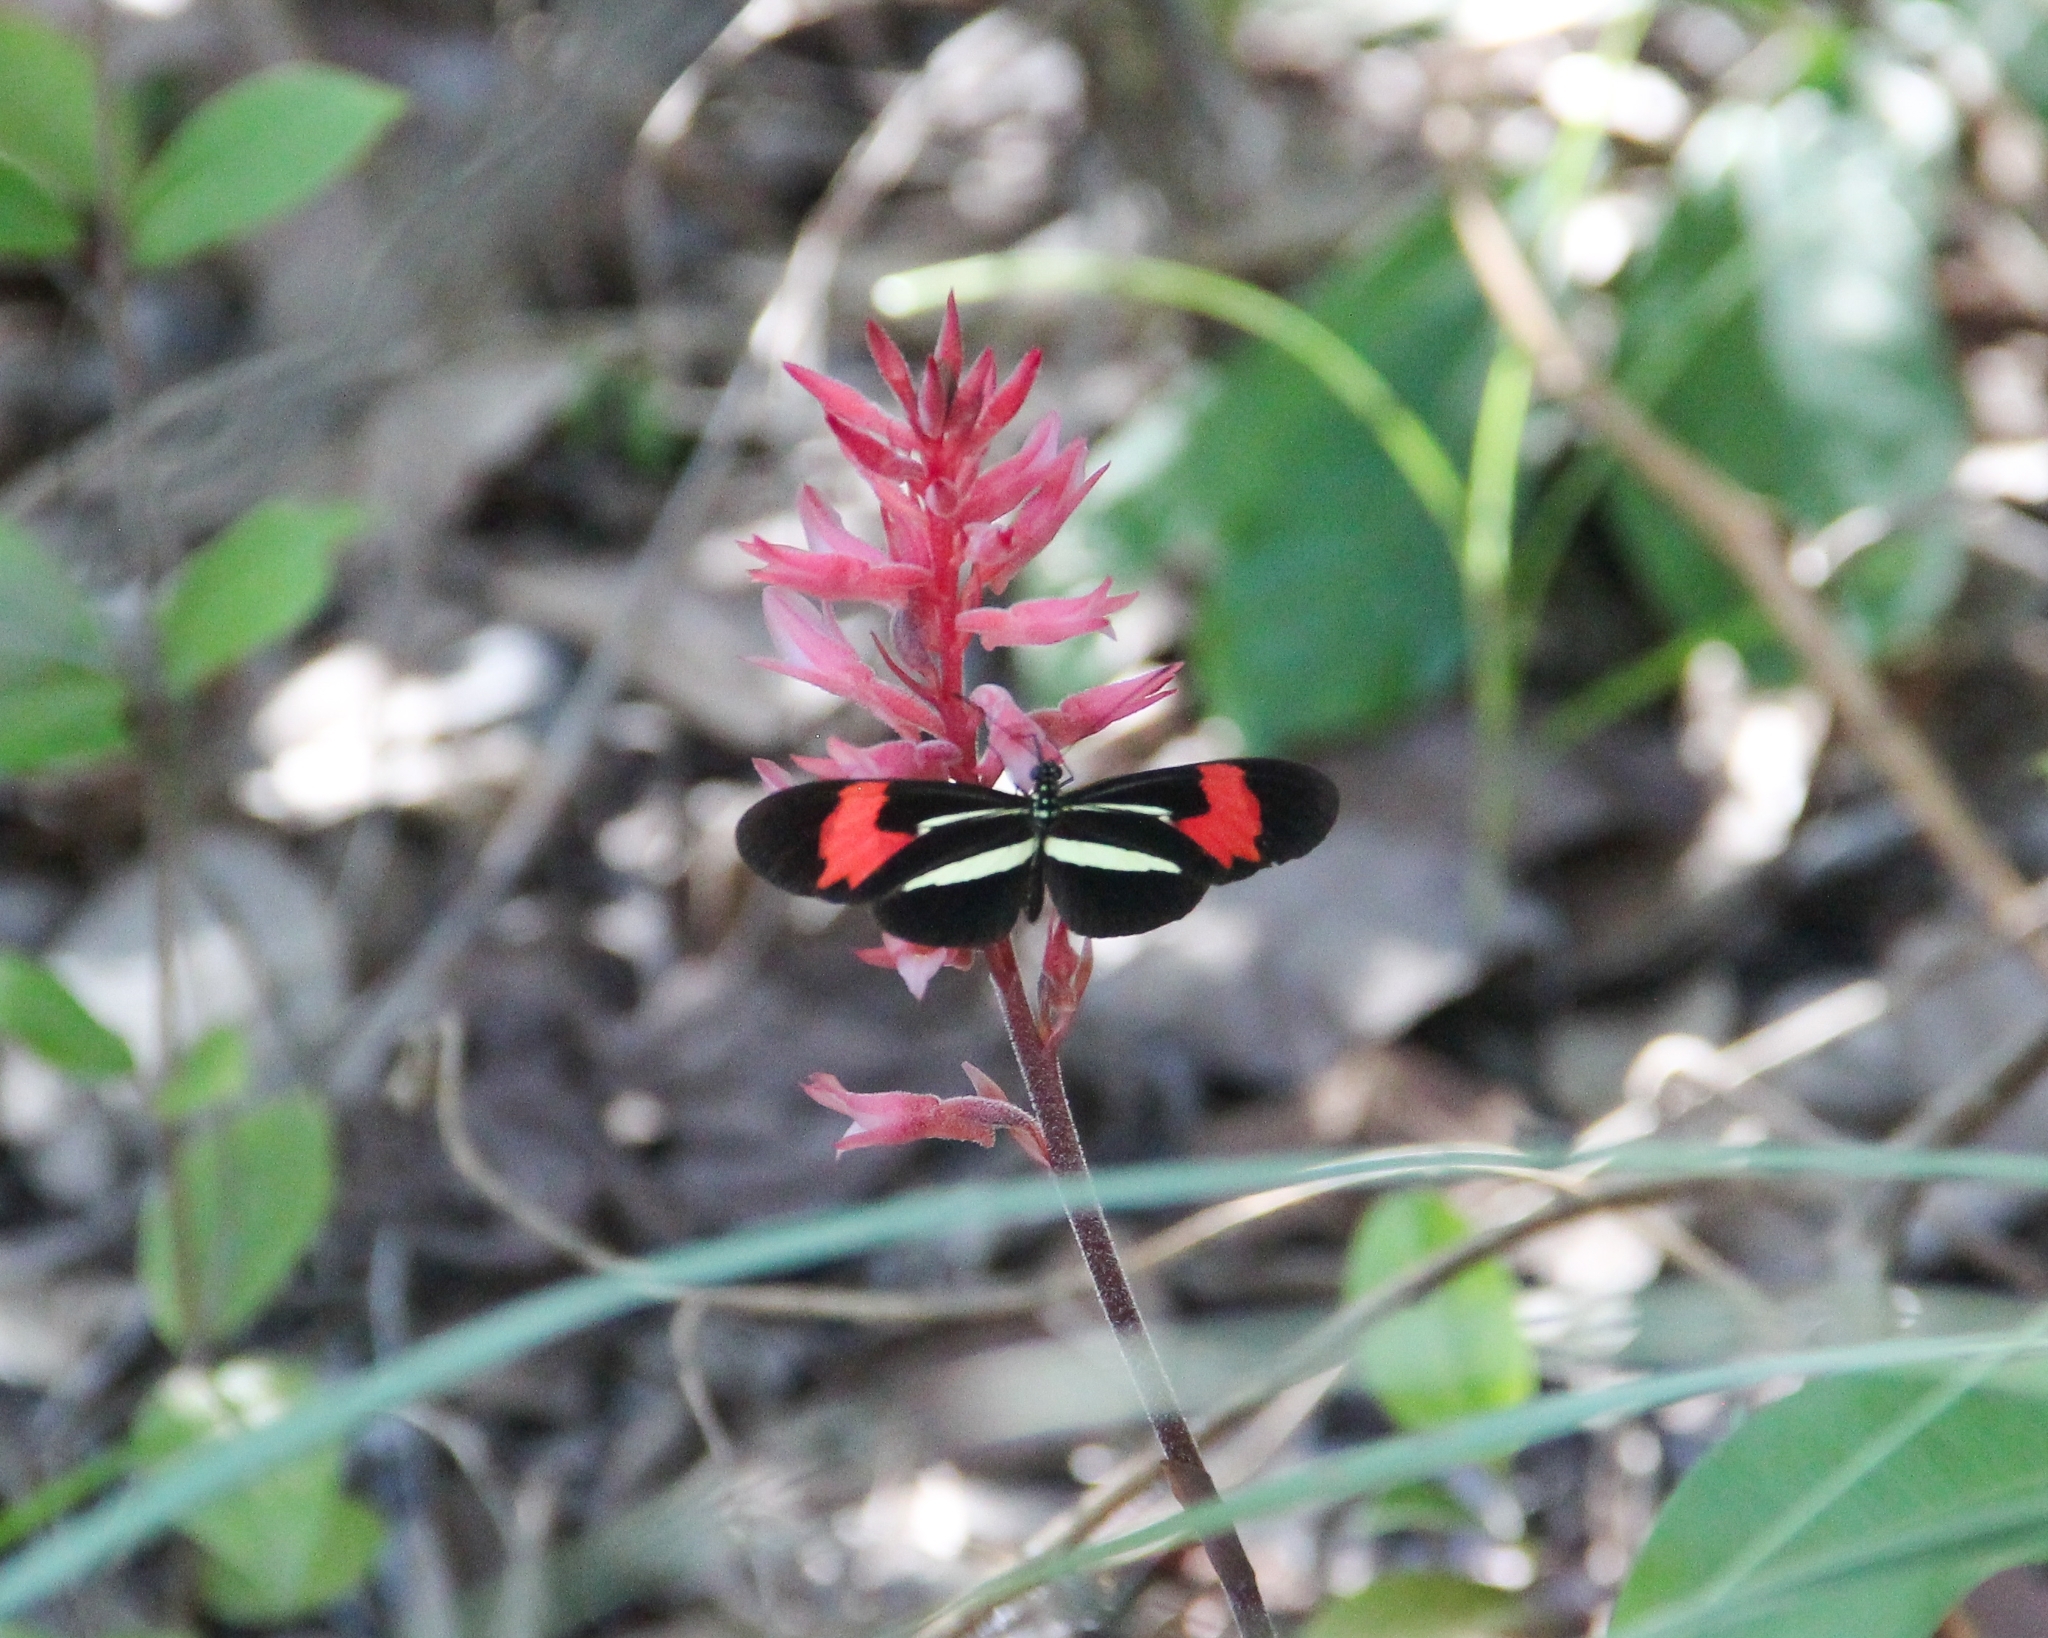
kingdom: Animalia
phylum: Arthropoda
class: Insecta
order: Lepidoptera
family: Nymphalidae
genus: Heliconius
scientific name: Heliconius erato
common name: Common patch longwing
